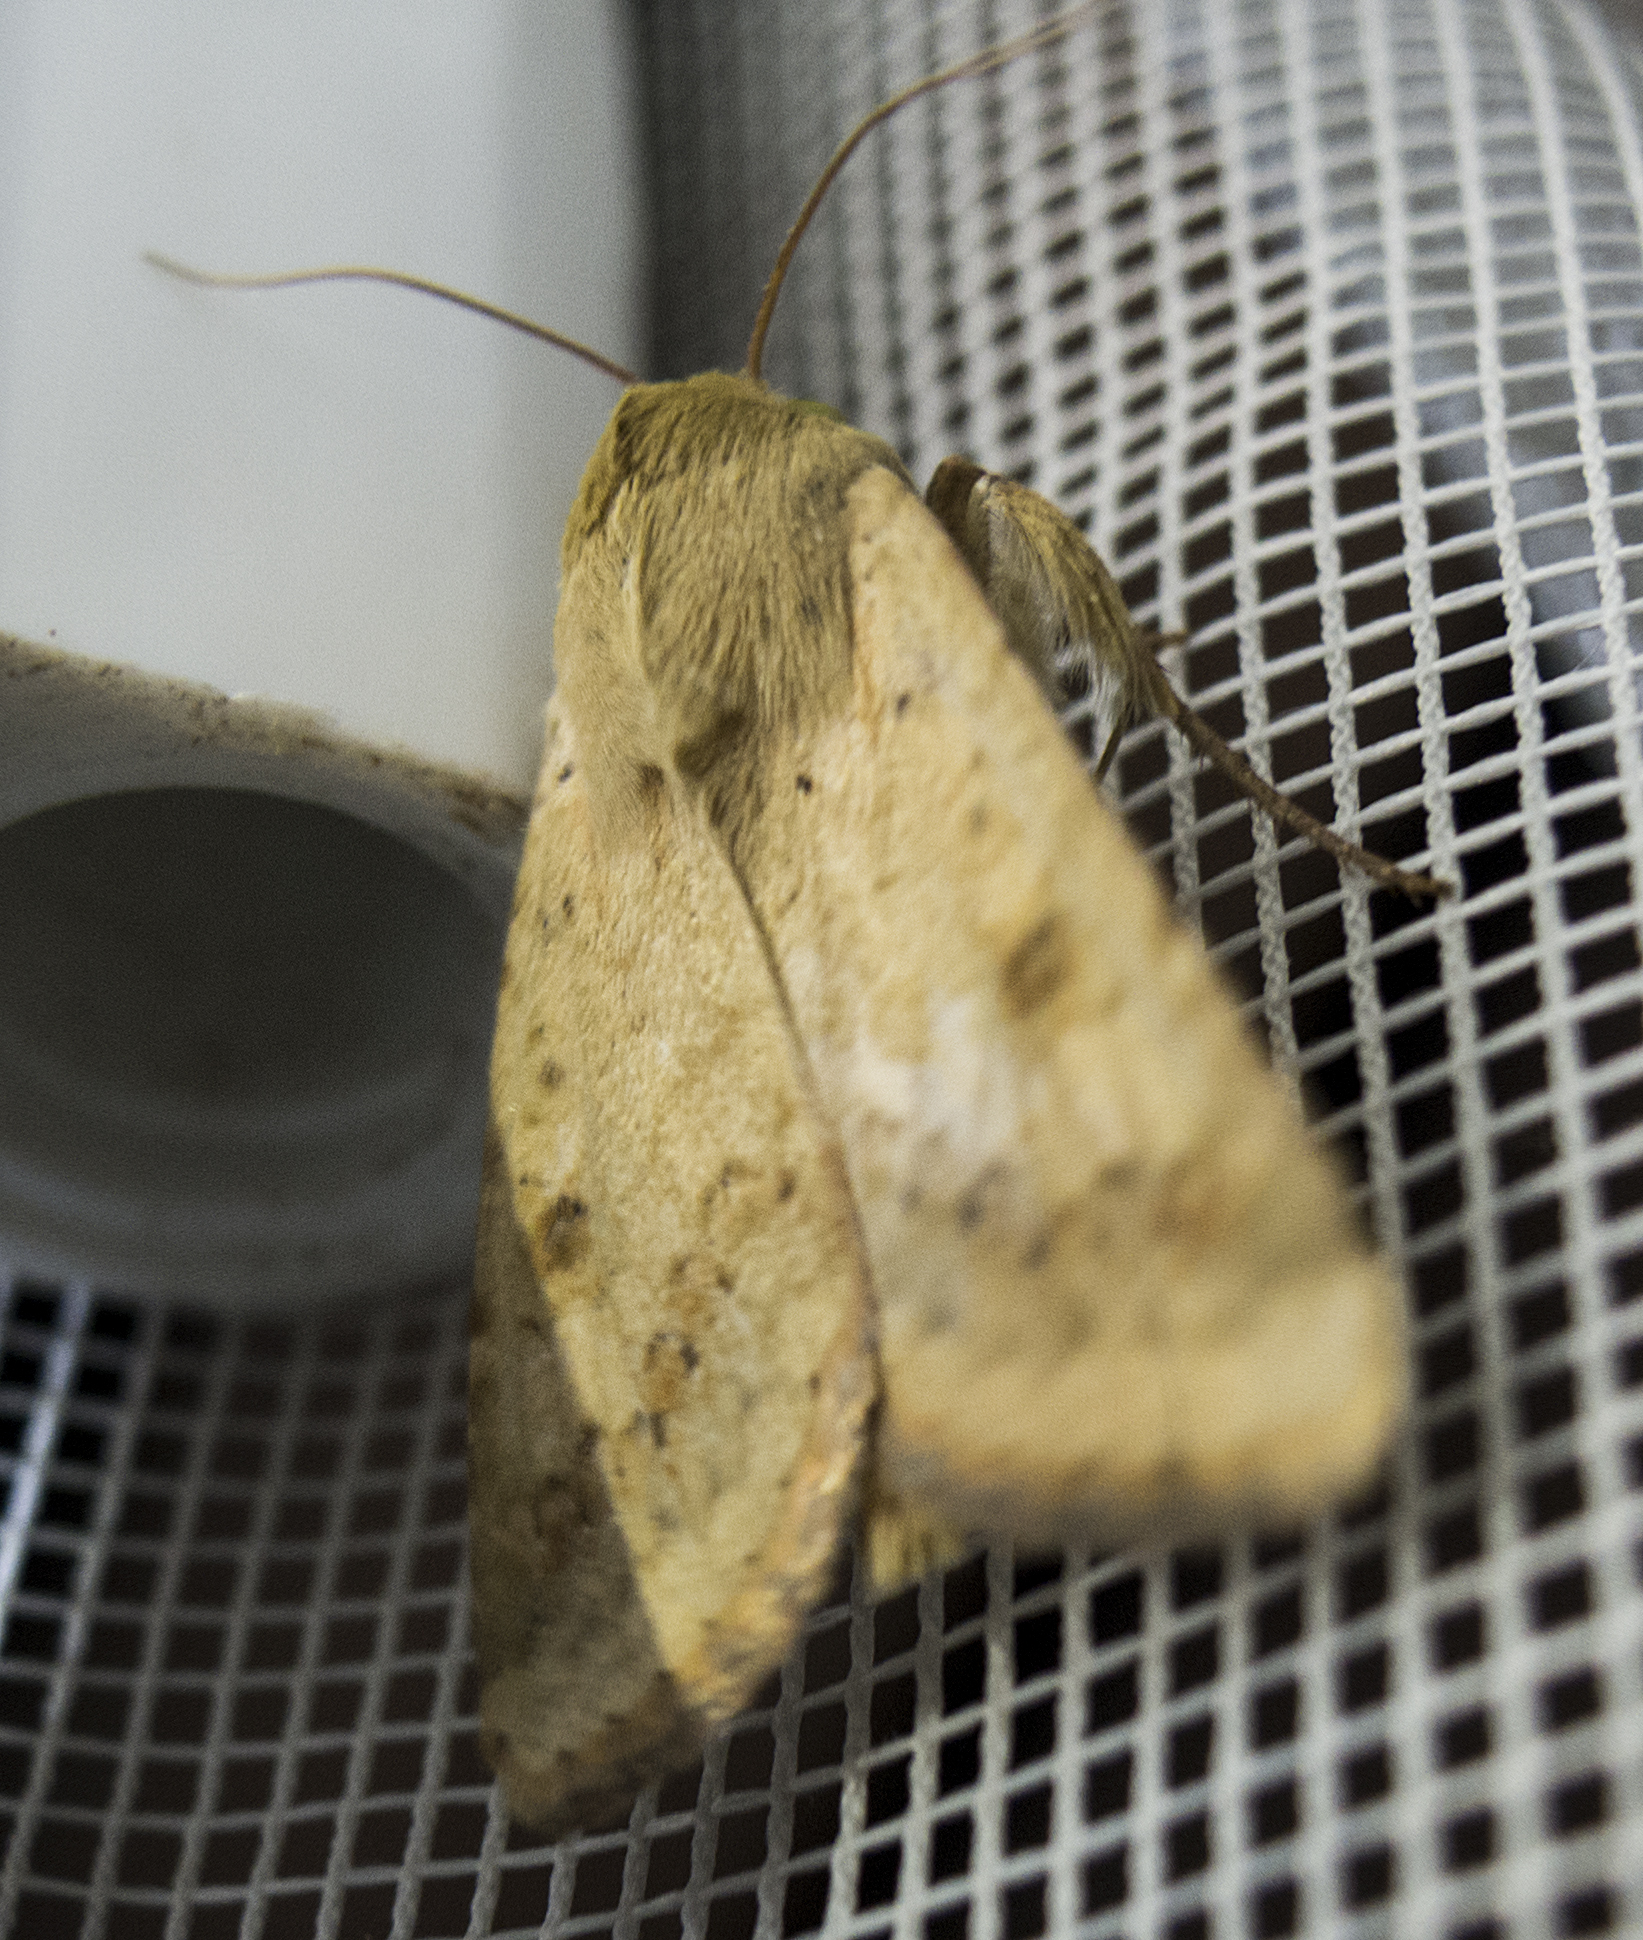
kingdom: Animalia
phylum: Arthropoda
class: Insecta
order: Lepidoptera
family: Noctuidae
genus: Helicoverpa
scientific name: Helicoverpa armigera
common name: Cotton bollworm
